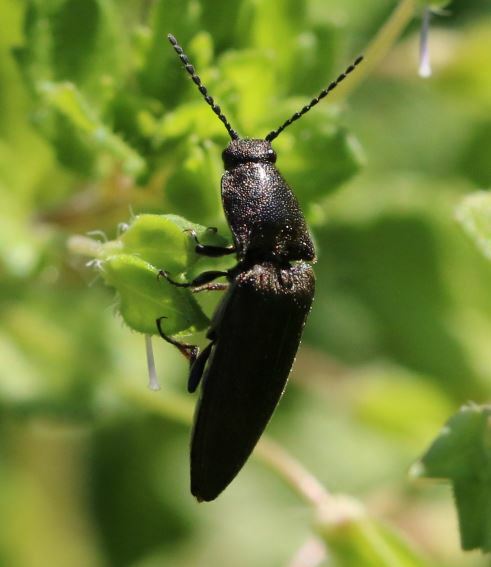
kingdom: Animalia
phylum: Arthropoda
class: Insecta
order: Coleoptera
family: Elateridae
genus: Cidnopus
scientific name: Cidnopus pilosus
